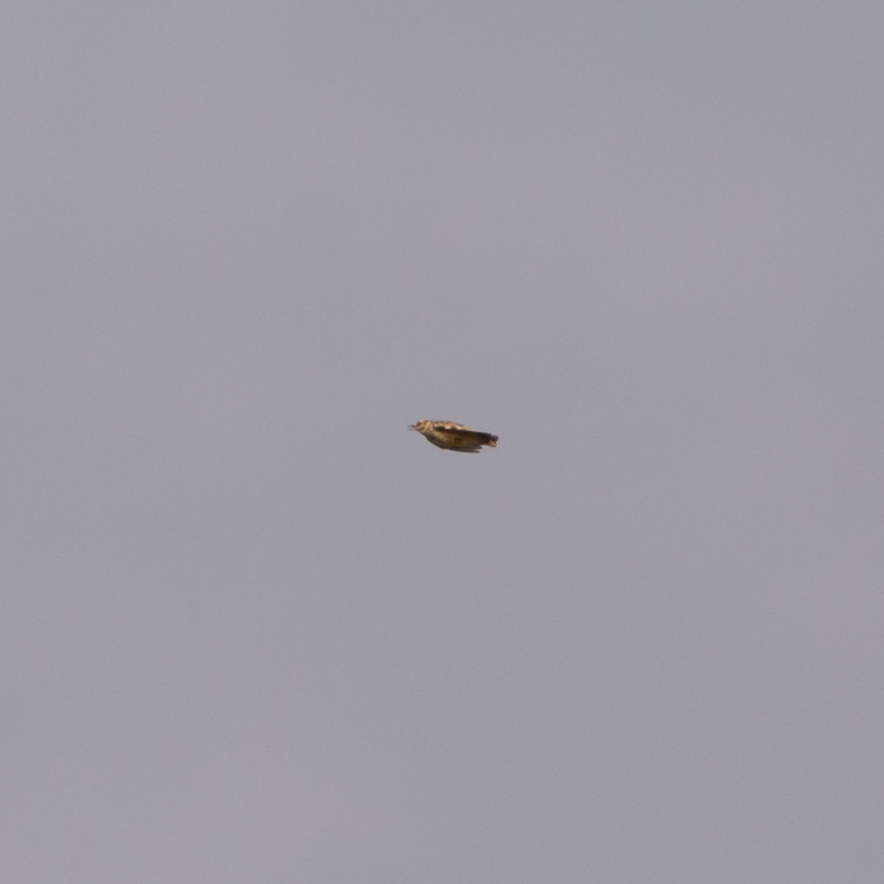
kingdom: Animalia
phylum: Chordata
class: Aves
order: Passeriformes
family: Alaudidae
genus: Lullula
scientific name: Lullula arborea
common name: Woodlark
